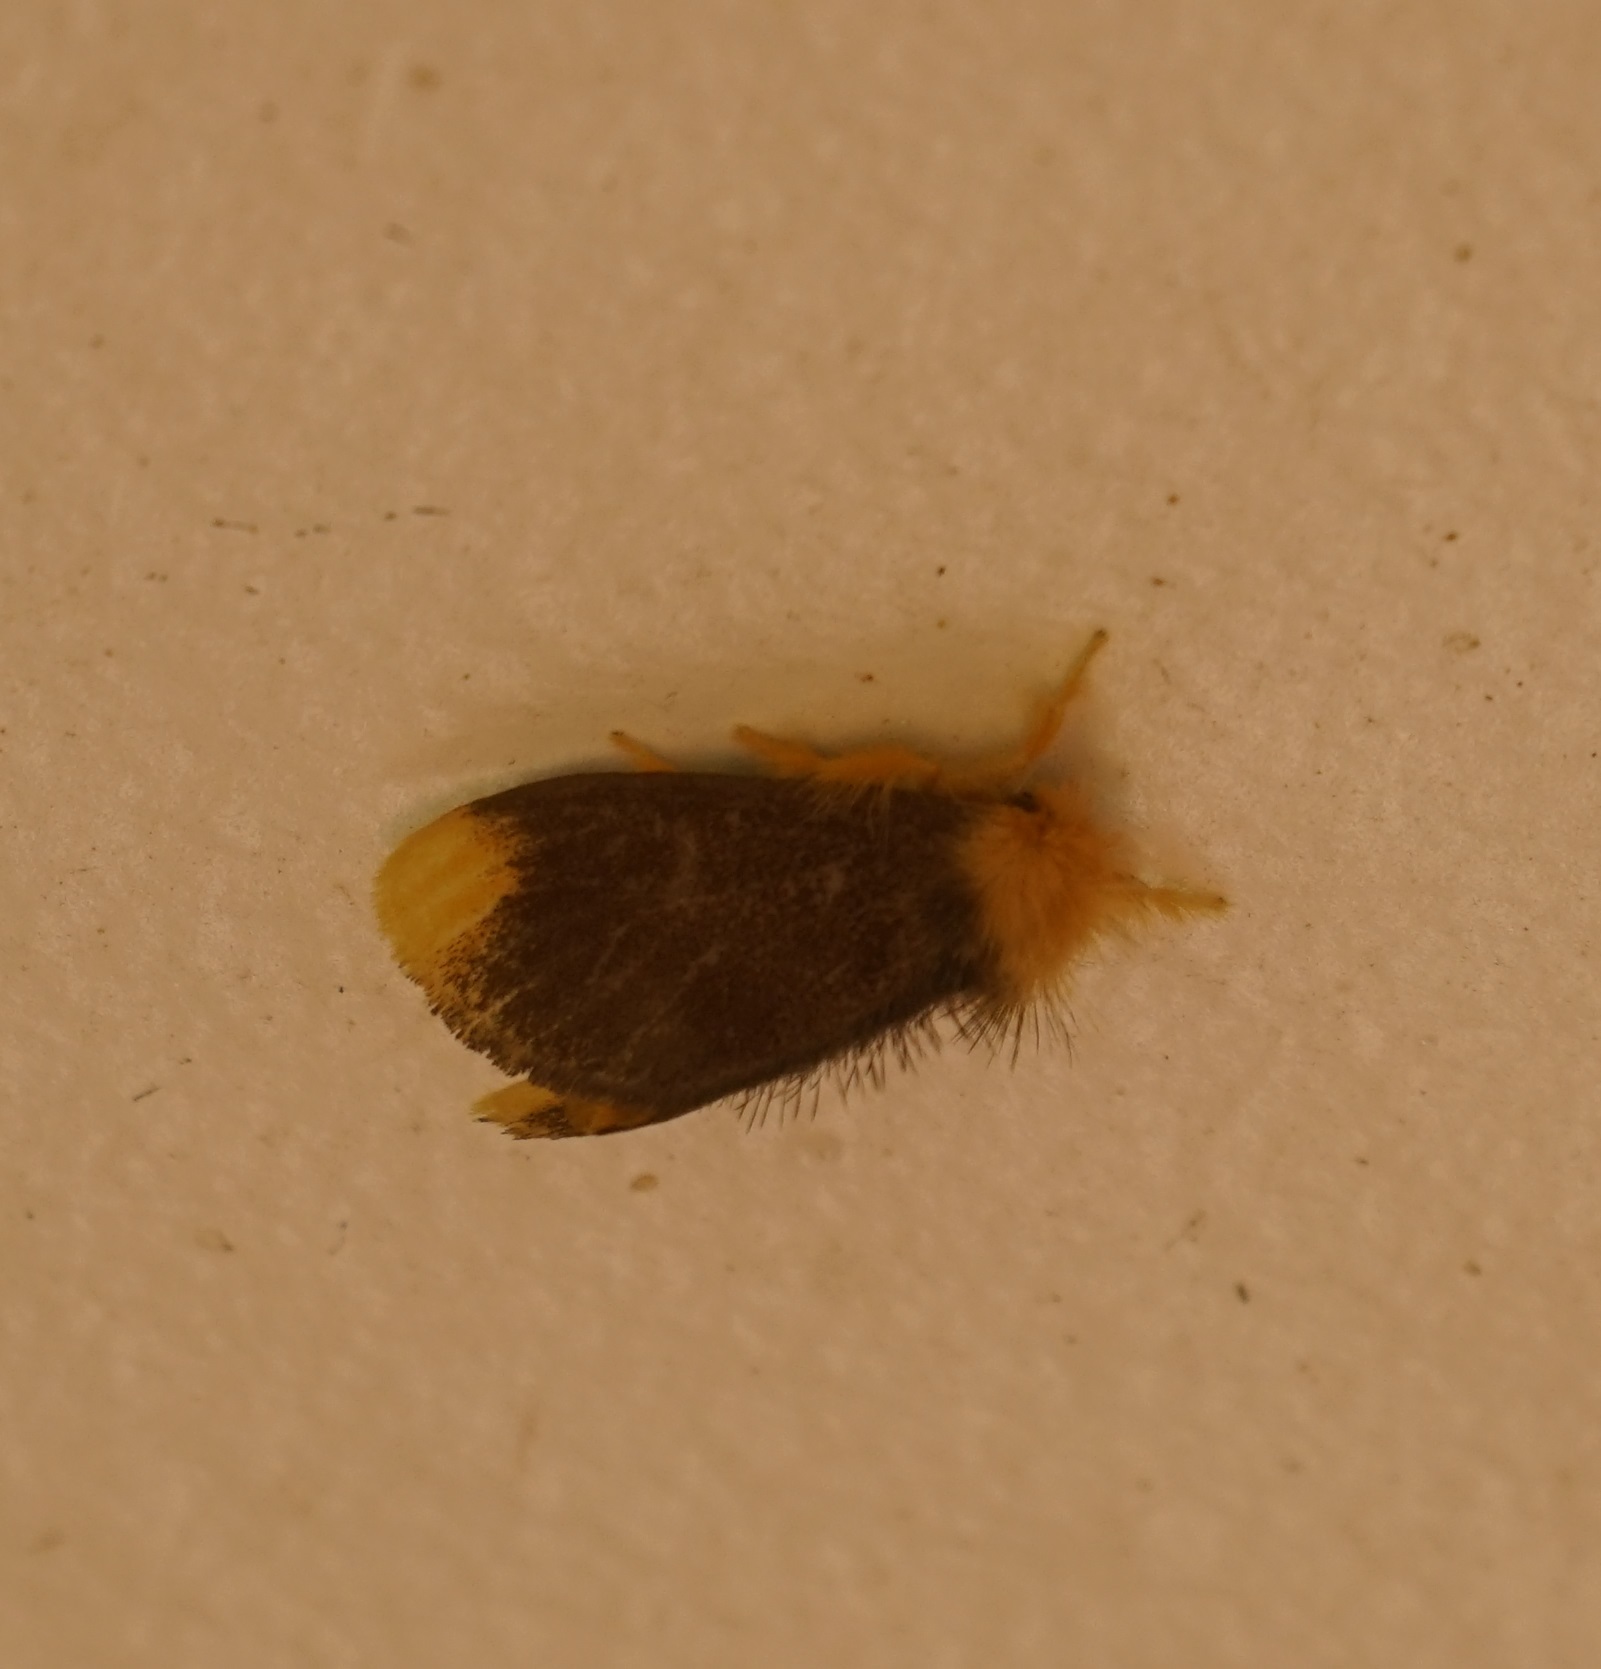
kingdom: Animalia
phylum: Arthropoda
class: Insecta
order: Lepidoptera
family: Erebidae
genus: Euproctis
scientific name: Euproctis subnobilis
